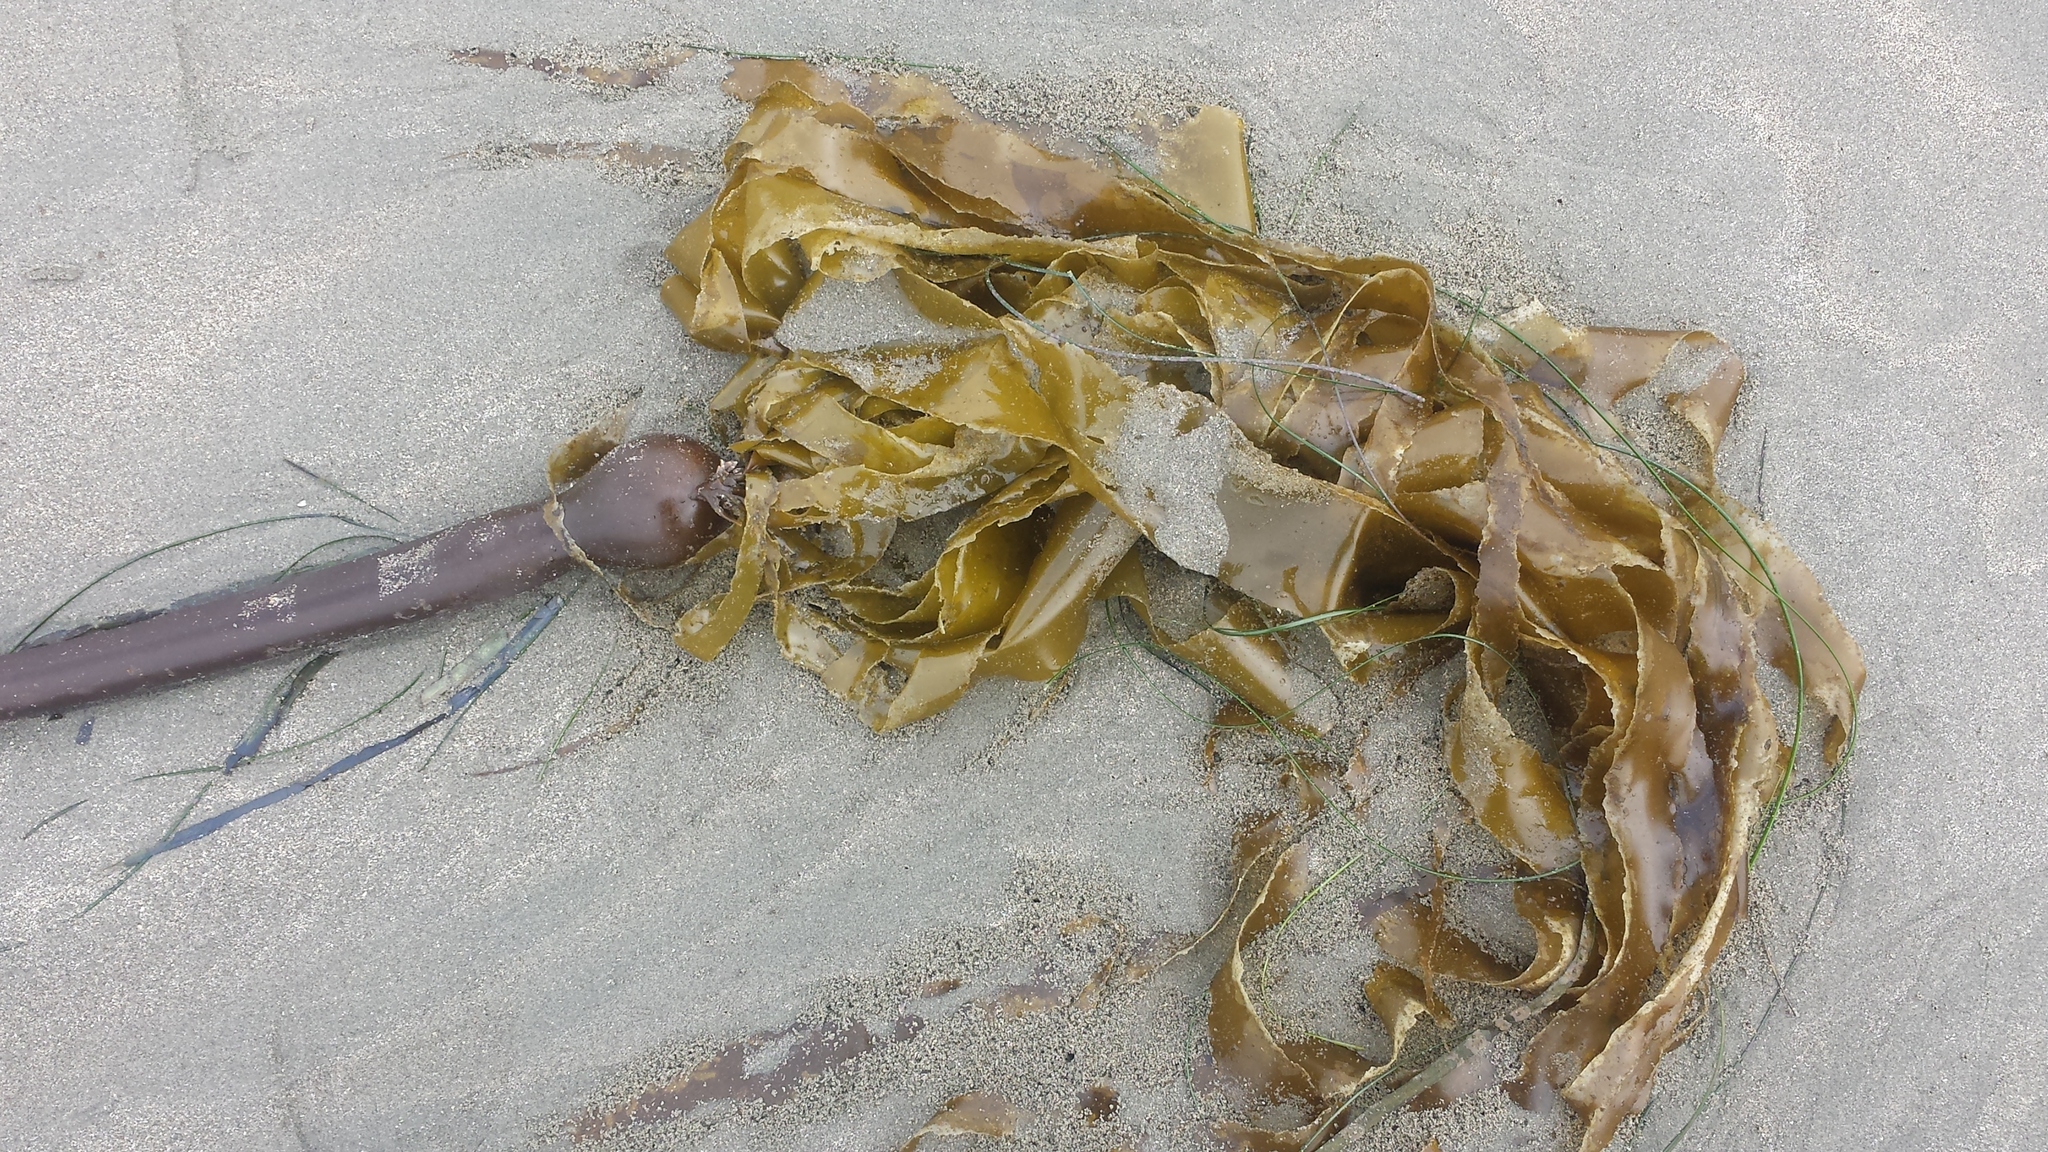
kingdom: Chromista
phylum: Ochrophyta
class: Phaeophyceae
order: Laminariales
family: Laminariaceae
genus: Nereocystis
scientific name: Nereocystis luetkeana
